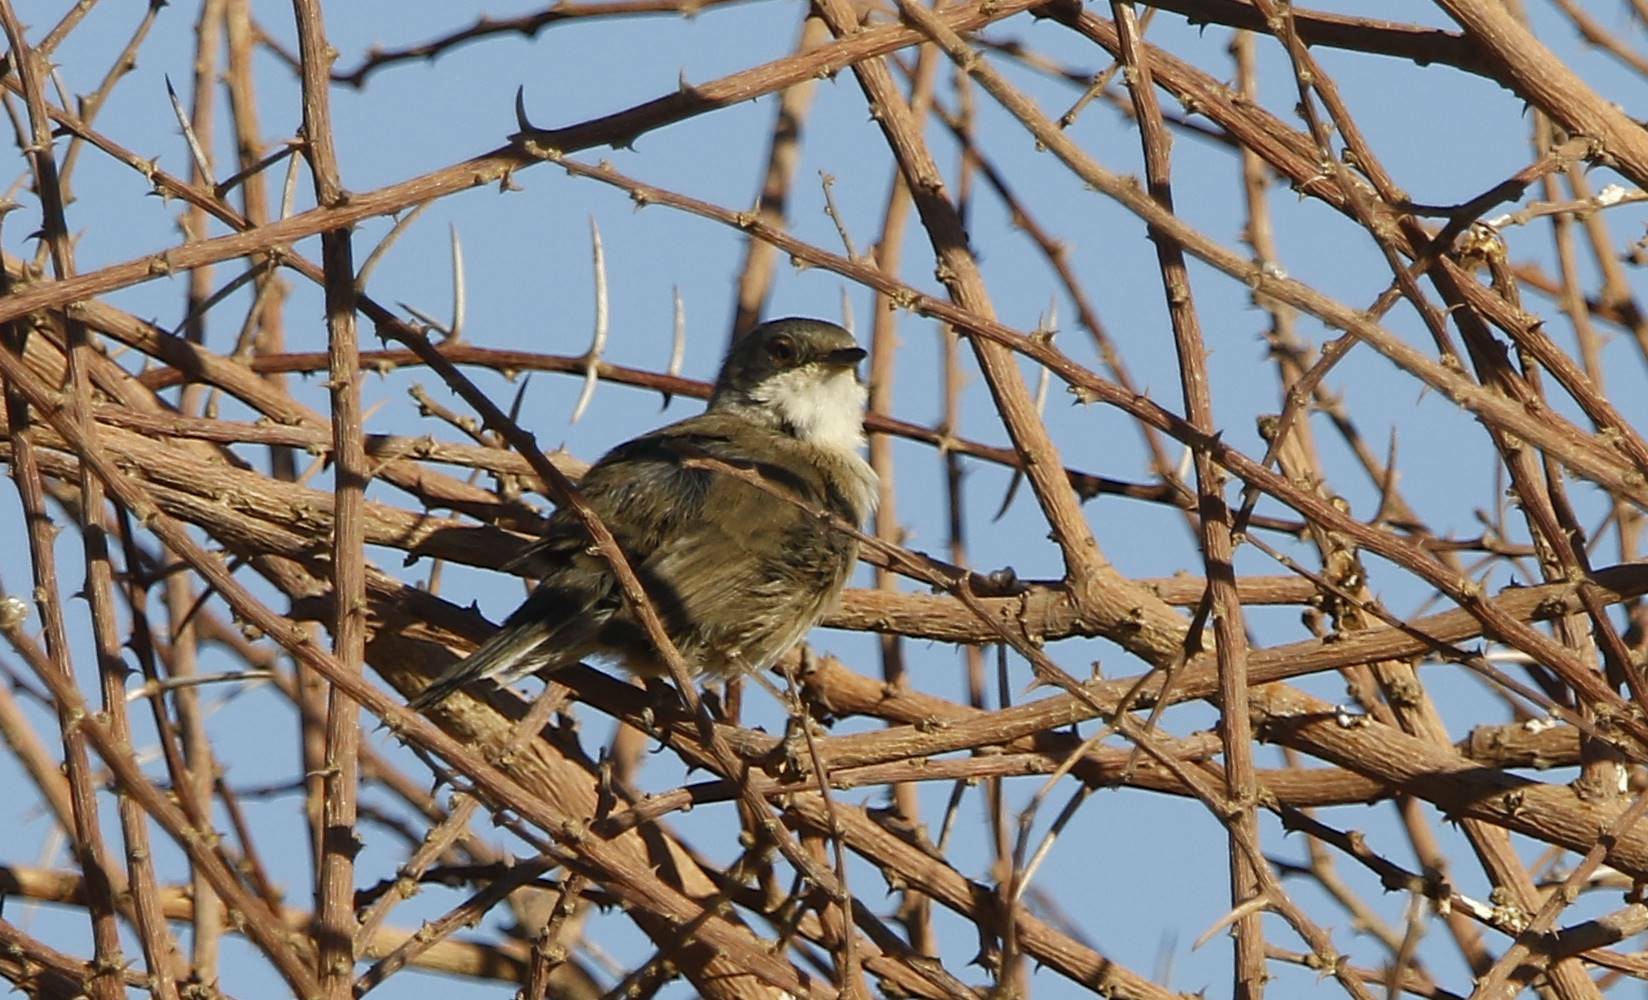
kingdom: Animalia
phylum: Chordata
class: Aves
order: Passeriformes
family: Sylviidae
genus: Curruca
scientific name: Curruca melanocephala
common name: Sardinian warbler
